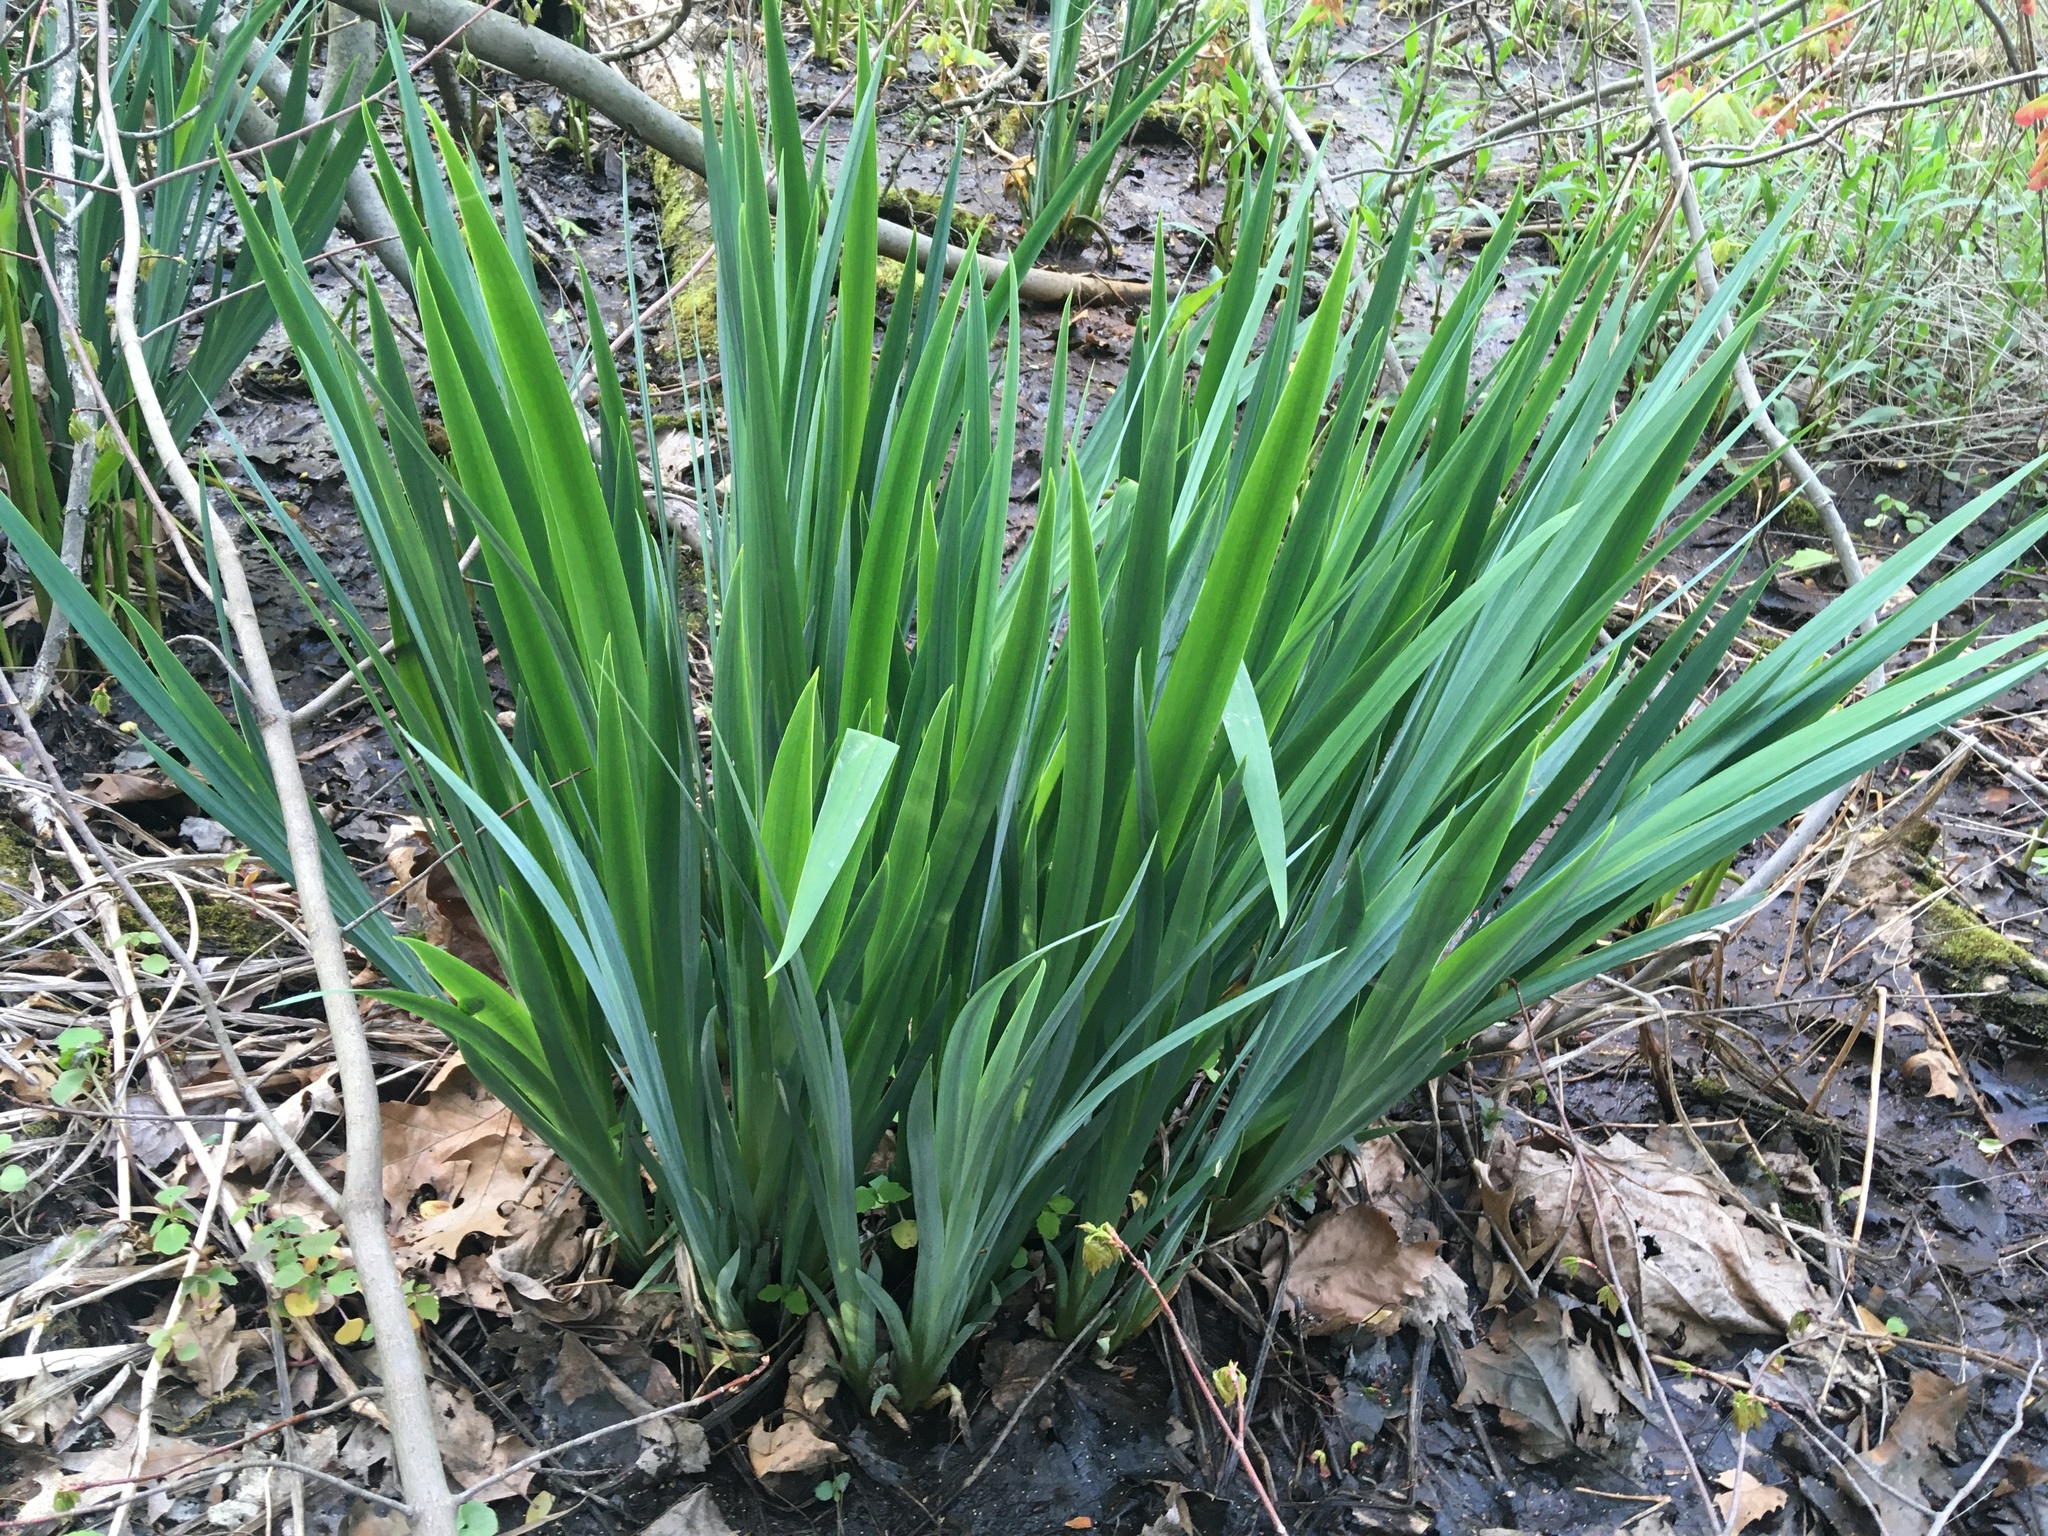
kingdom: Plantae
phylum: Tracheophyta
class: Liliopsida
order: Asparagales
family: Iridaceae
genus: Iris
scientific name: Iris pseudacorus
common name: Yellow flag
